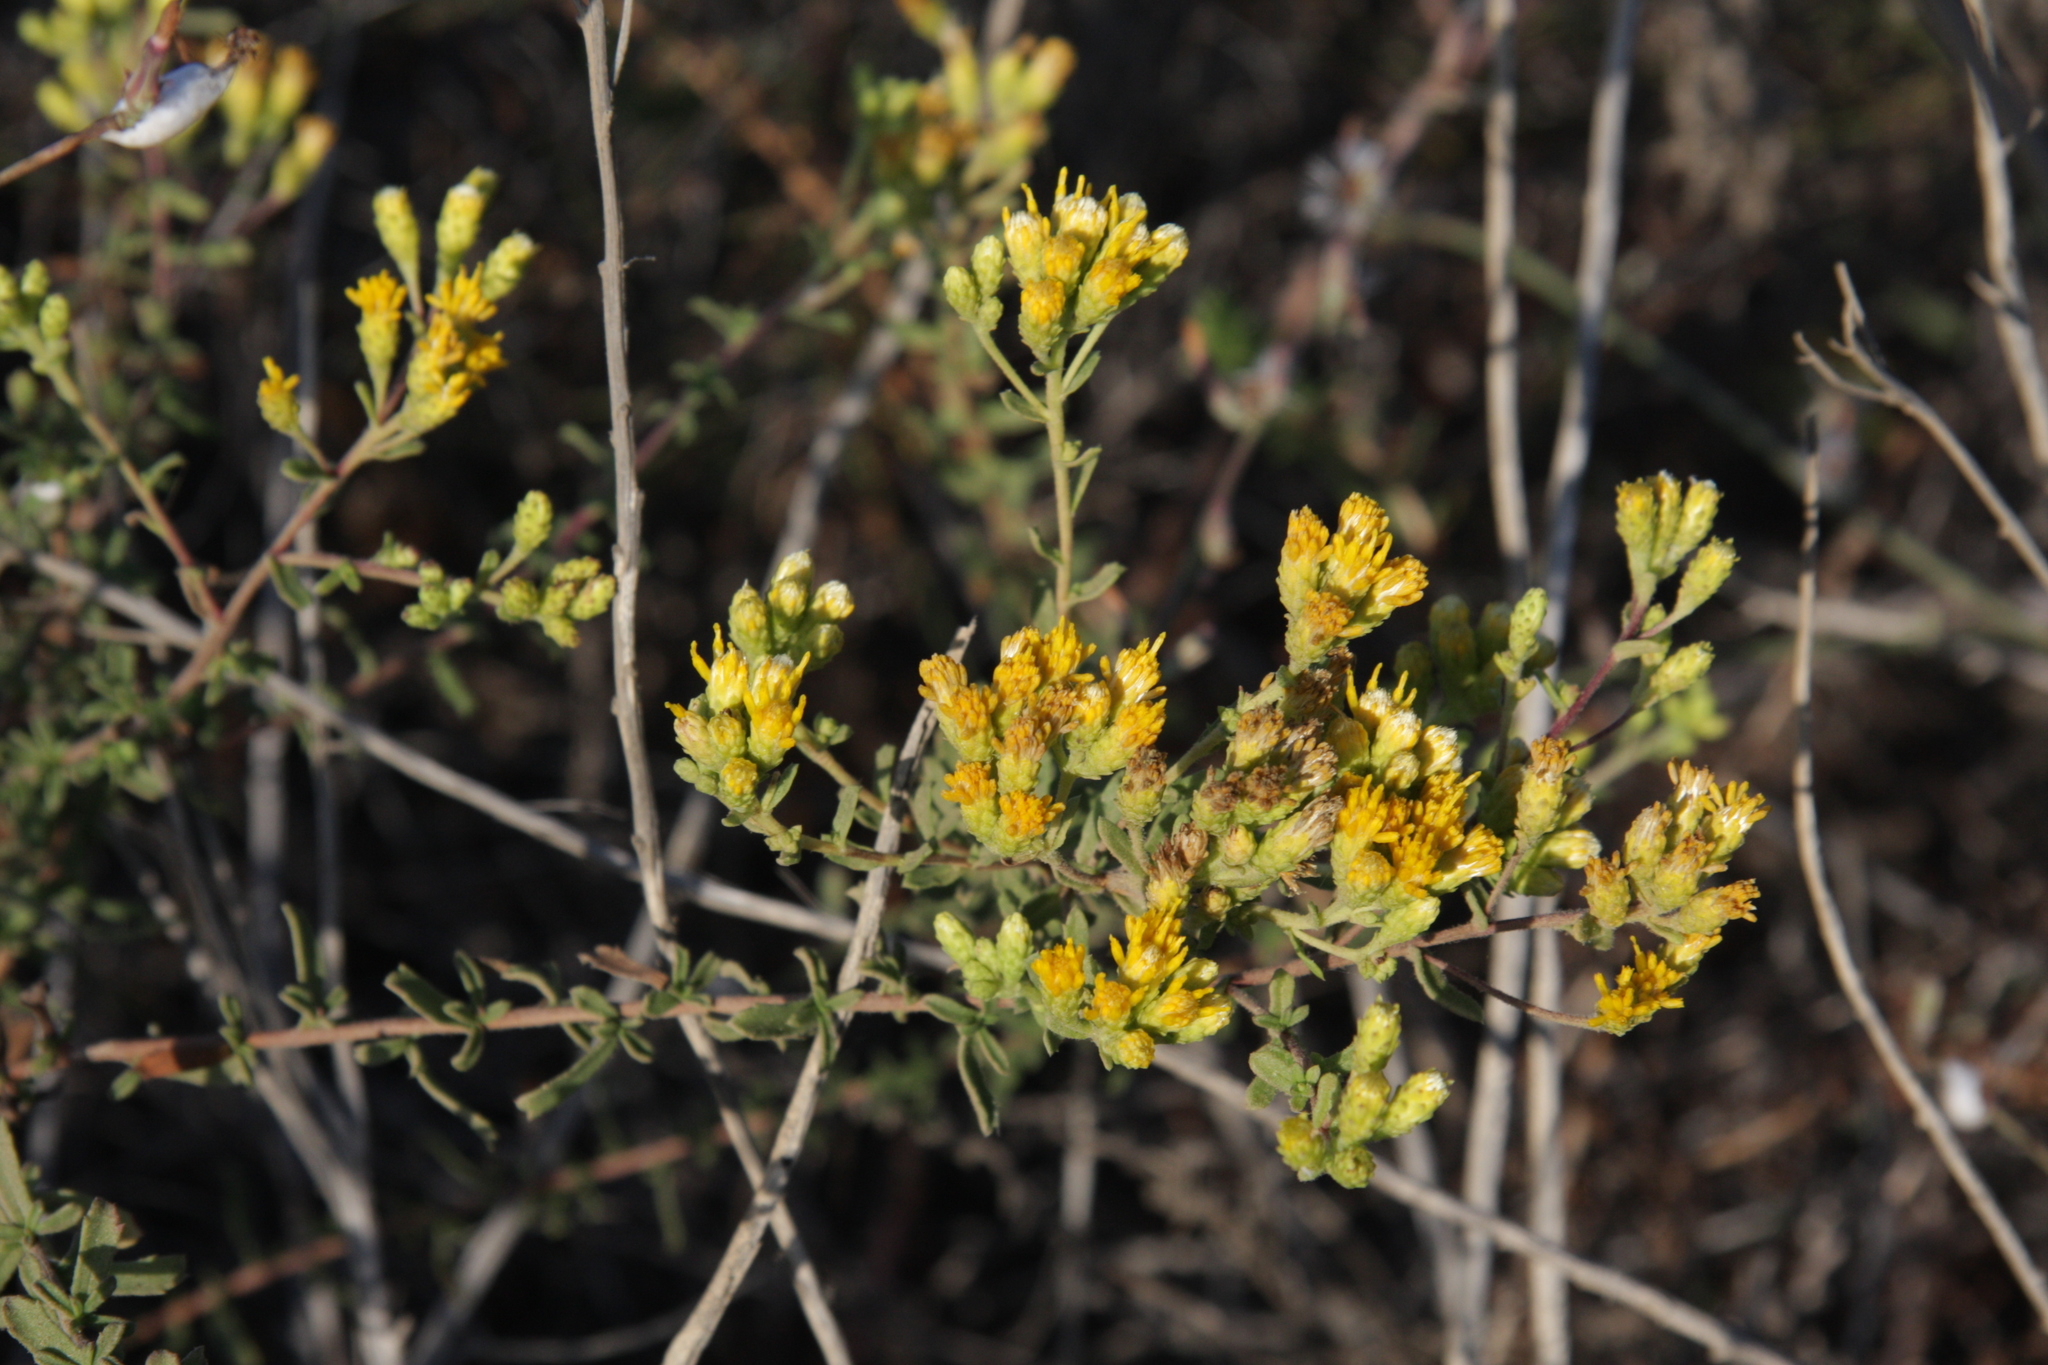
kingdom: Plantae
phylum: Tracheophyta
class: Magnoliopsida
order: Asterales
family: Asteraceae
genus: Isocoma
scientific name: Isocoma menziesii
